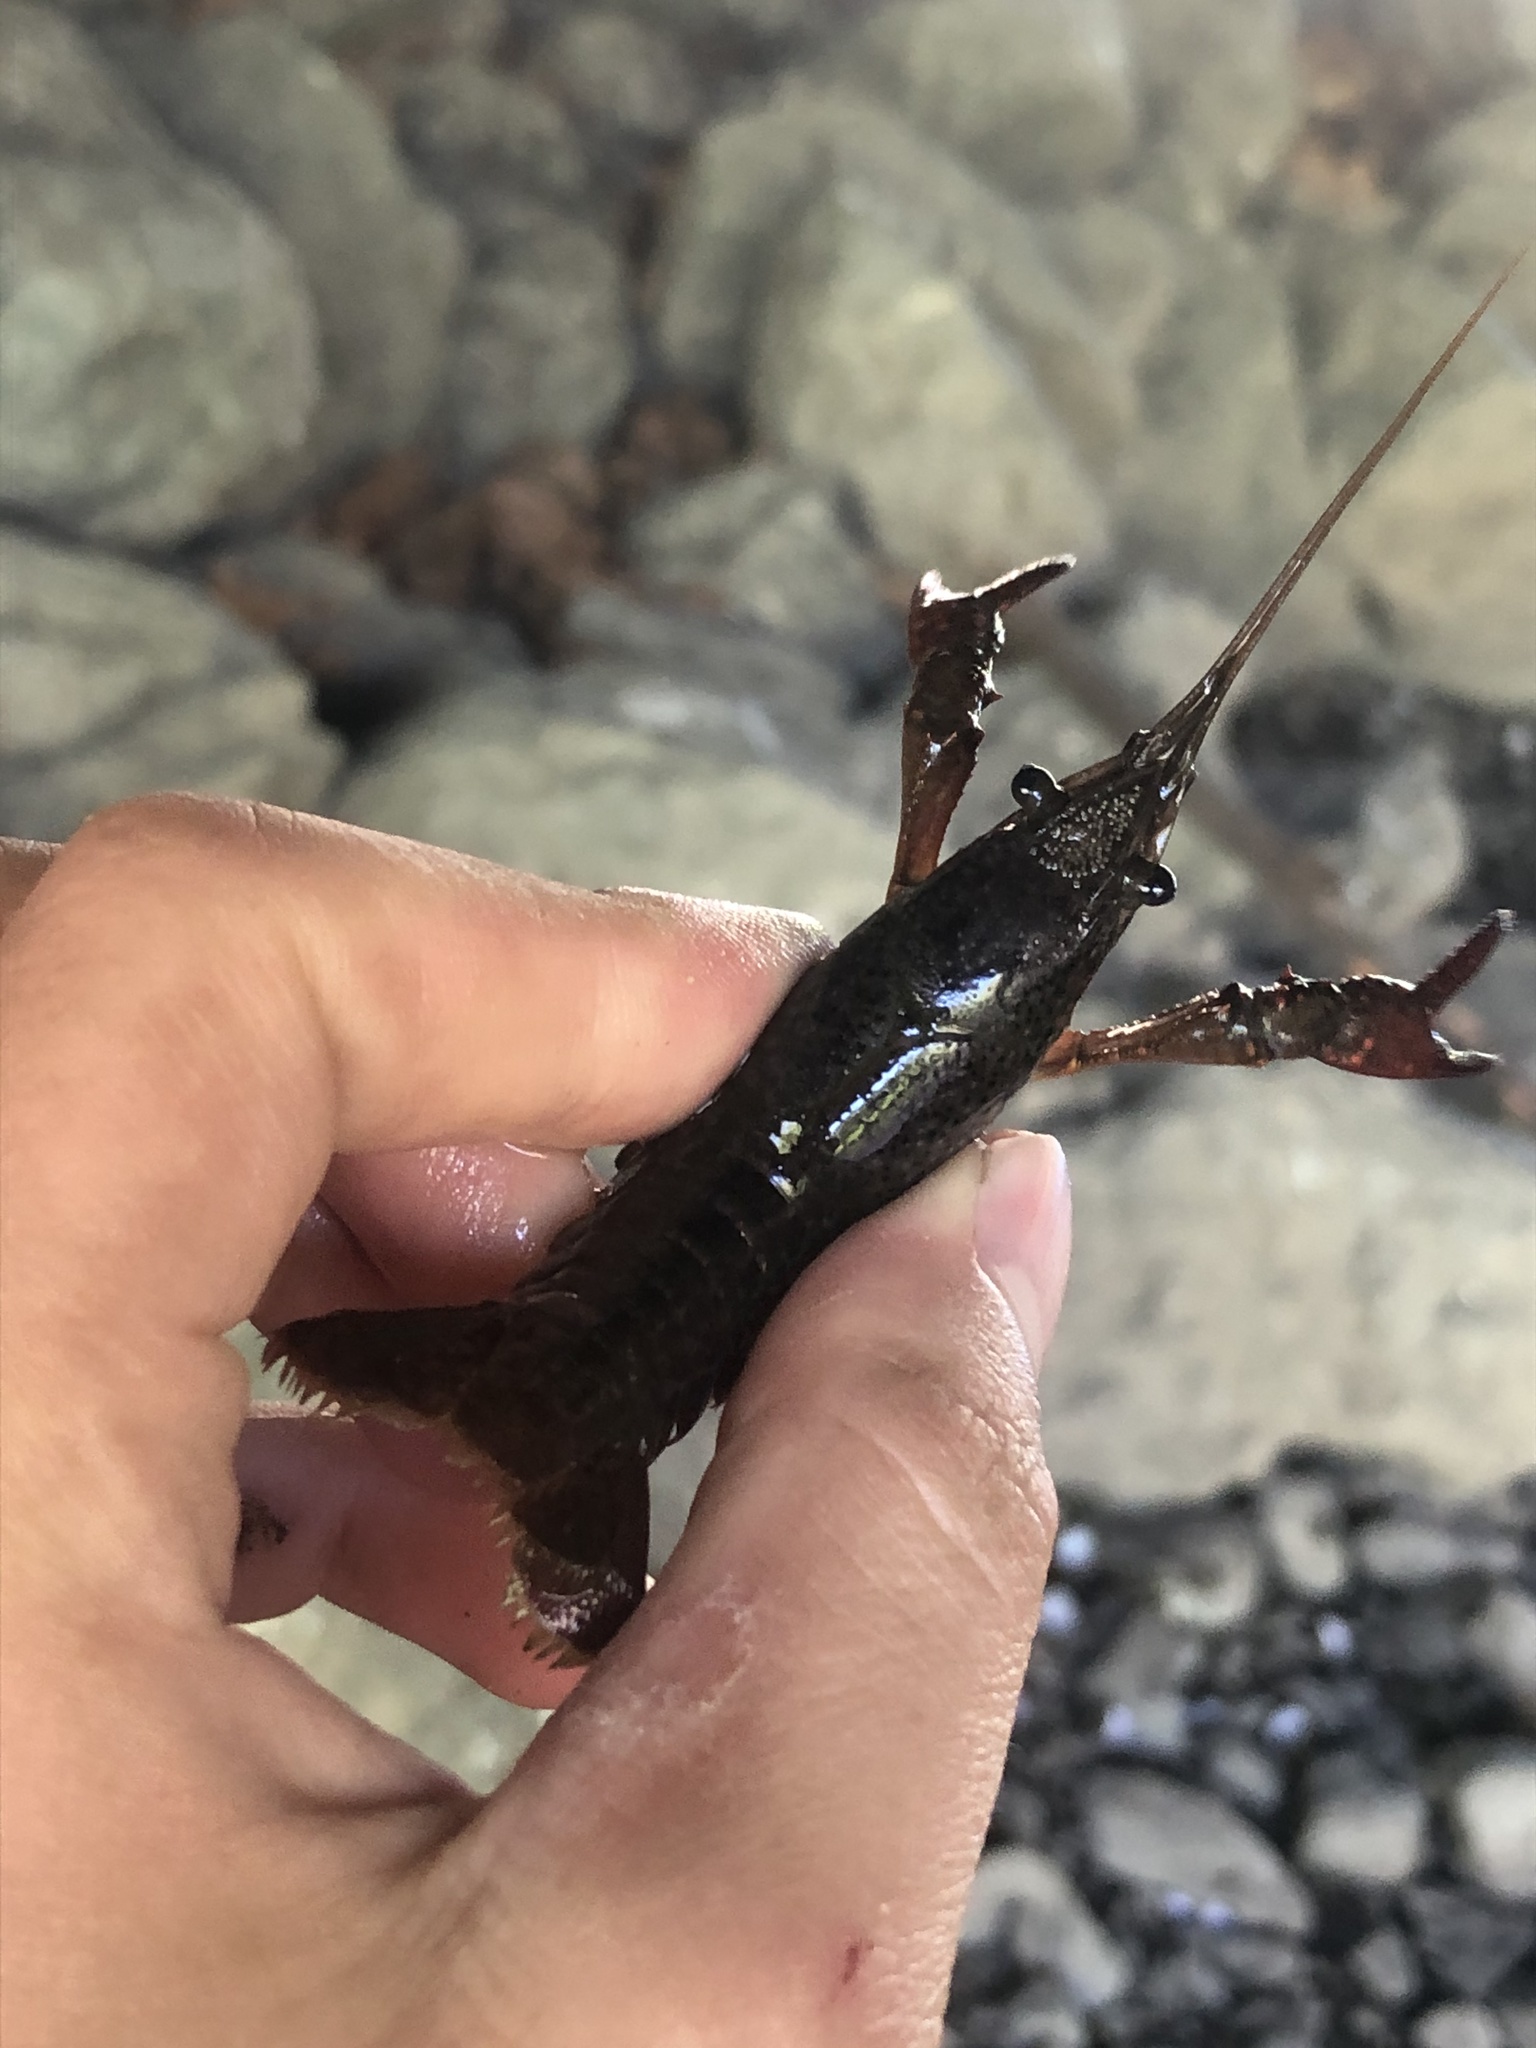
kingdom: Animalia
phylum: Arthropoda
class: Malacostraca
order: Decapoda
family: Cambaridae
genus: Procambarus
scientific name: Procambarus clarkii
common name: Red swamp crayfish
